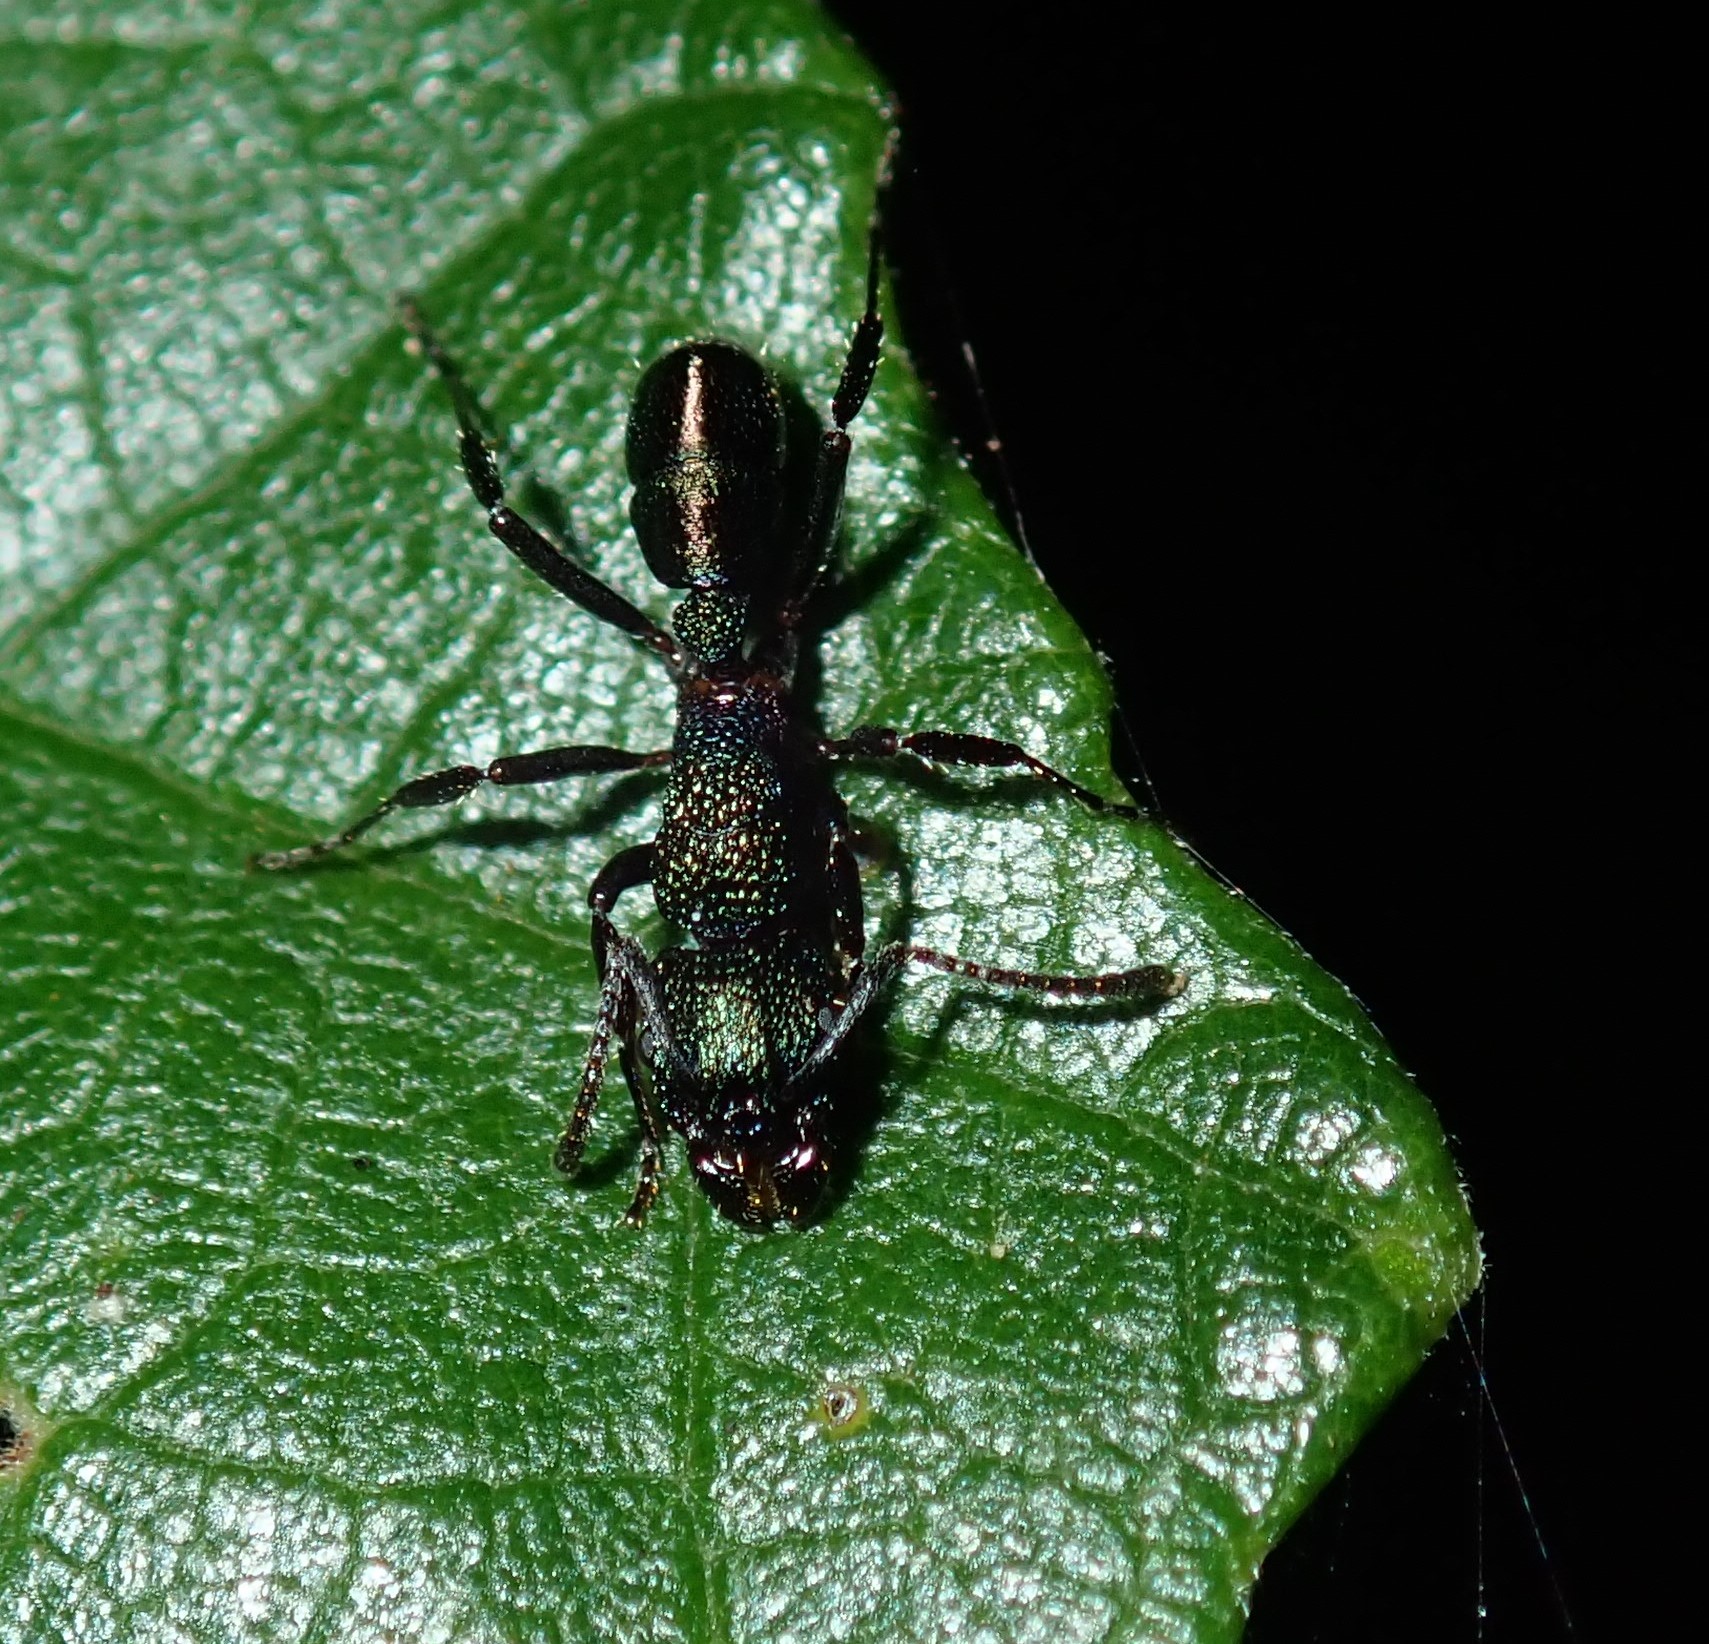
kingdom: Animalia
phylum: Arthropoda
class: Insecta
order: Hymenoptera
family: Formicidae
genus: Rhytidoponera
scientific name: Rhytidoponera metallica
